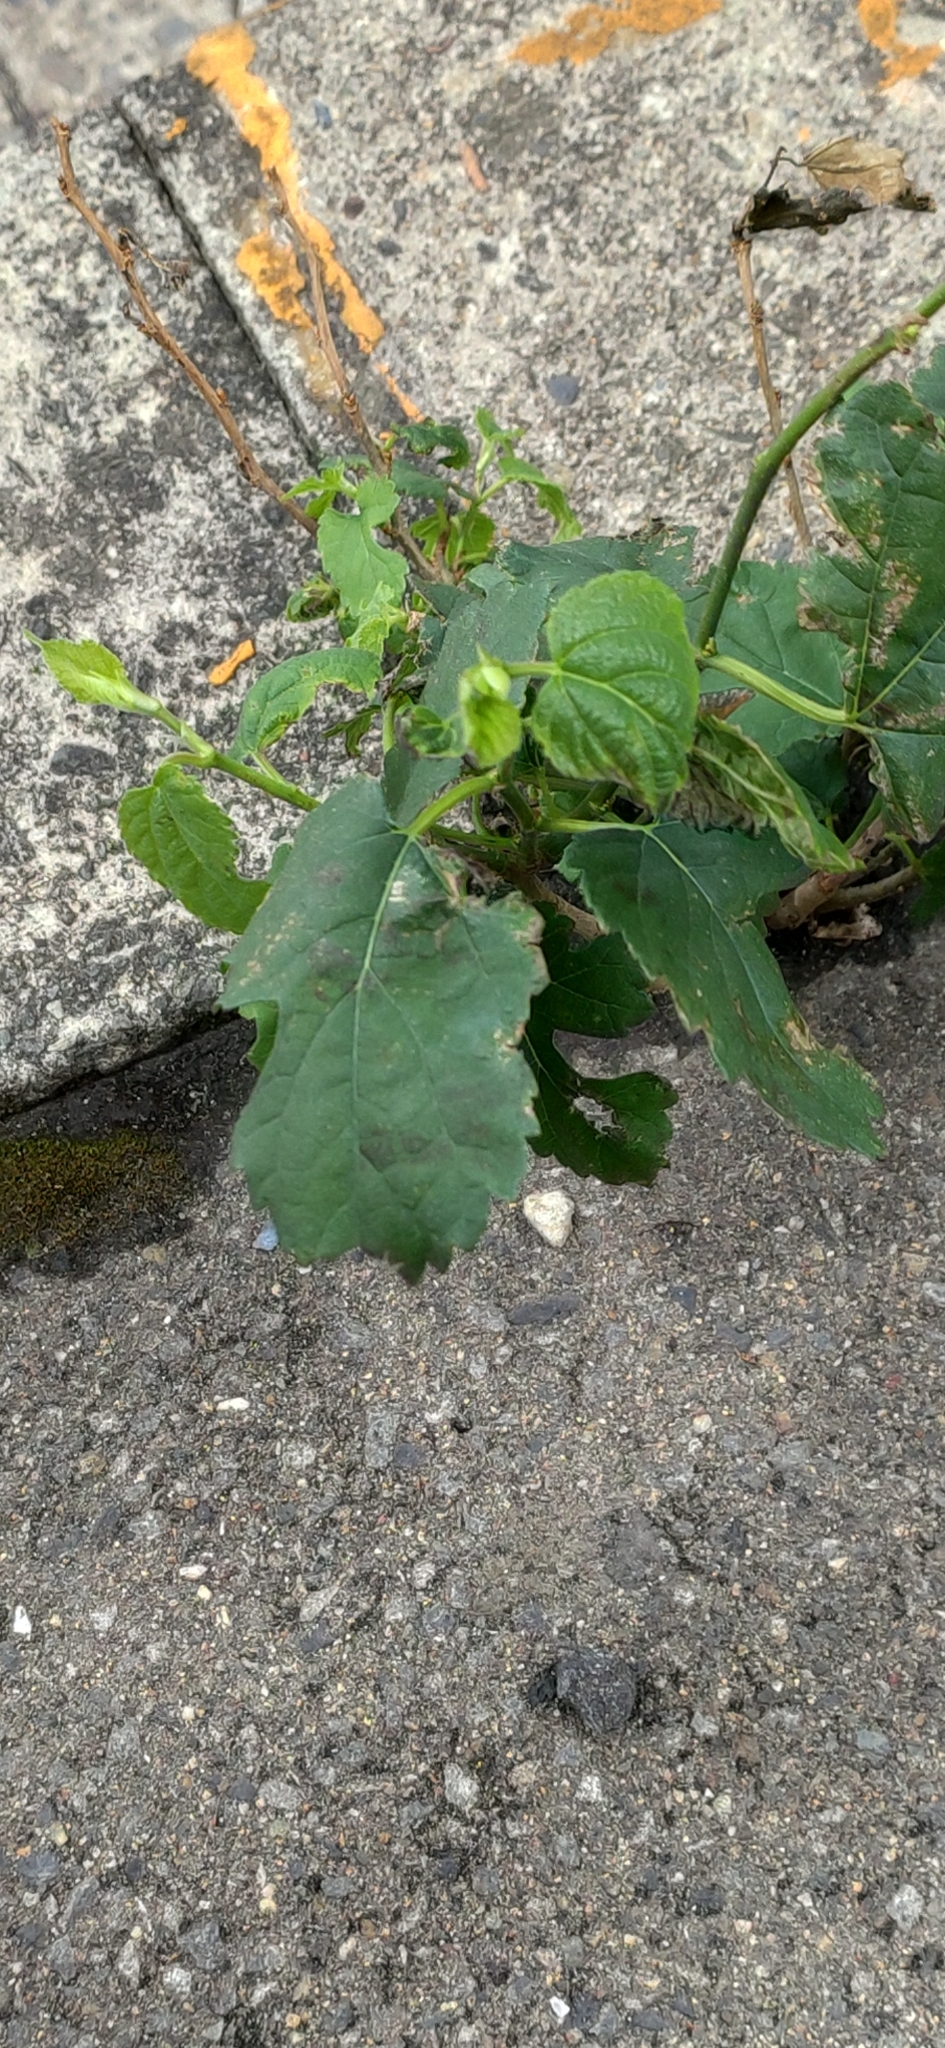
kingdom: Plantae
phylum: Tracheophyta
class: Magnoliopsida
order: Rosales
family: Moraceae
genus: Morus
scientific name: Morus indica
